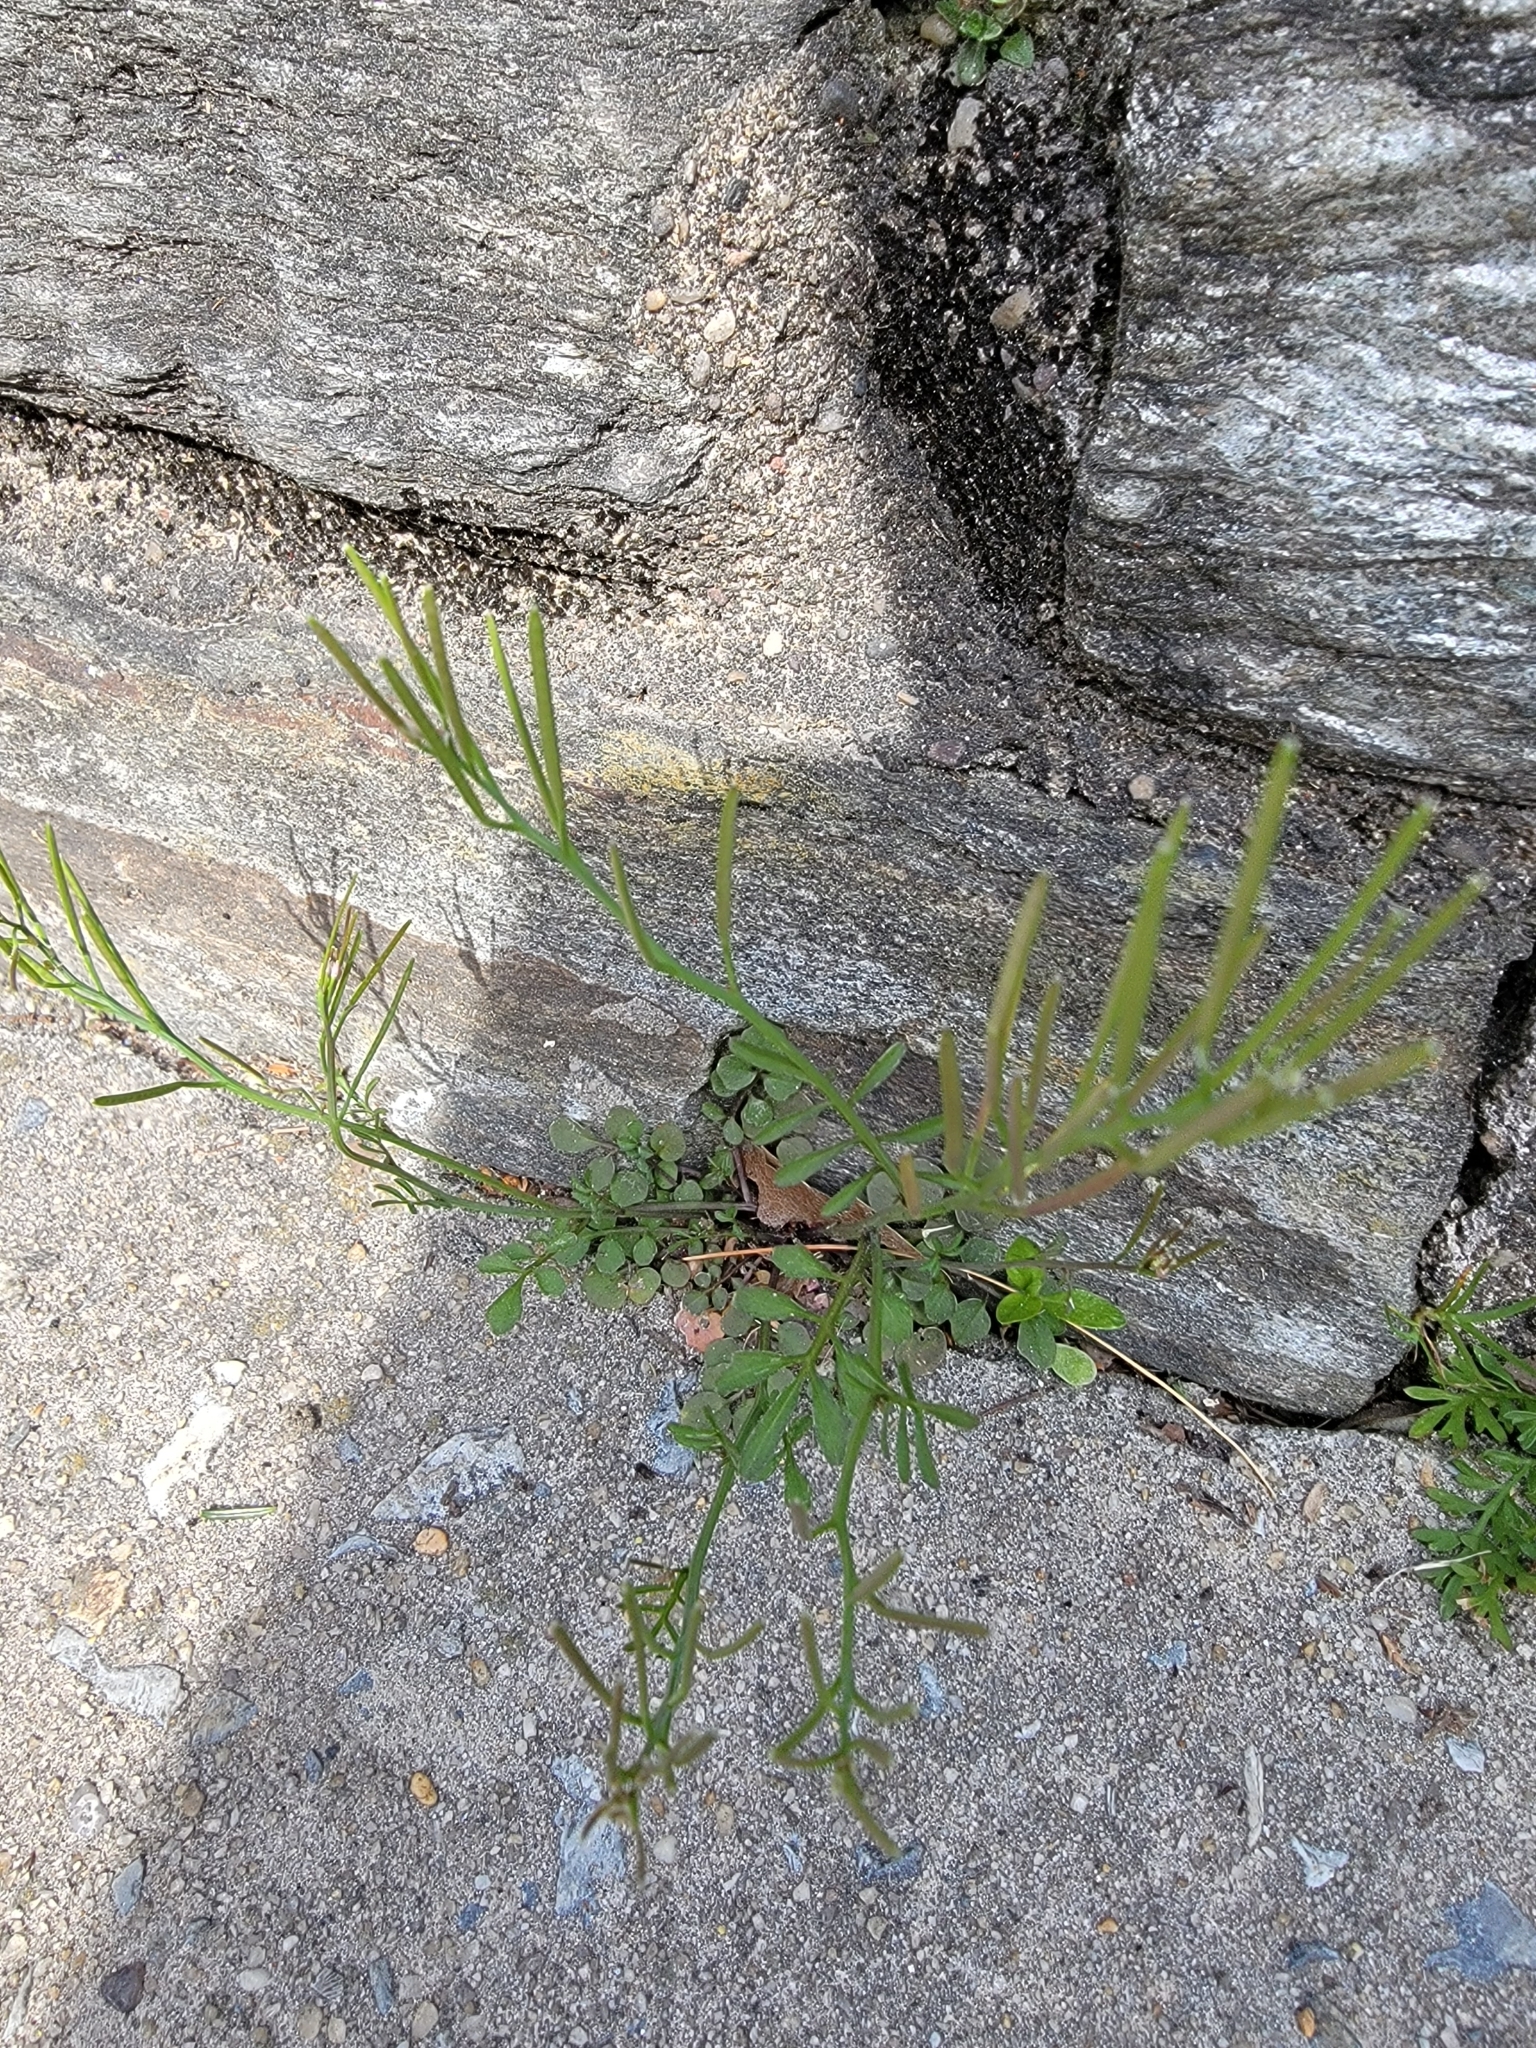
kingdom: Plantae
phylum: Tracheophyta
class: Magnoliopsida
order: Brassicales
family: Brassicaceae
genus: Cardamine
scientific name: Cardamine hirsuta
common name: Hairy bittercress
